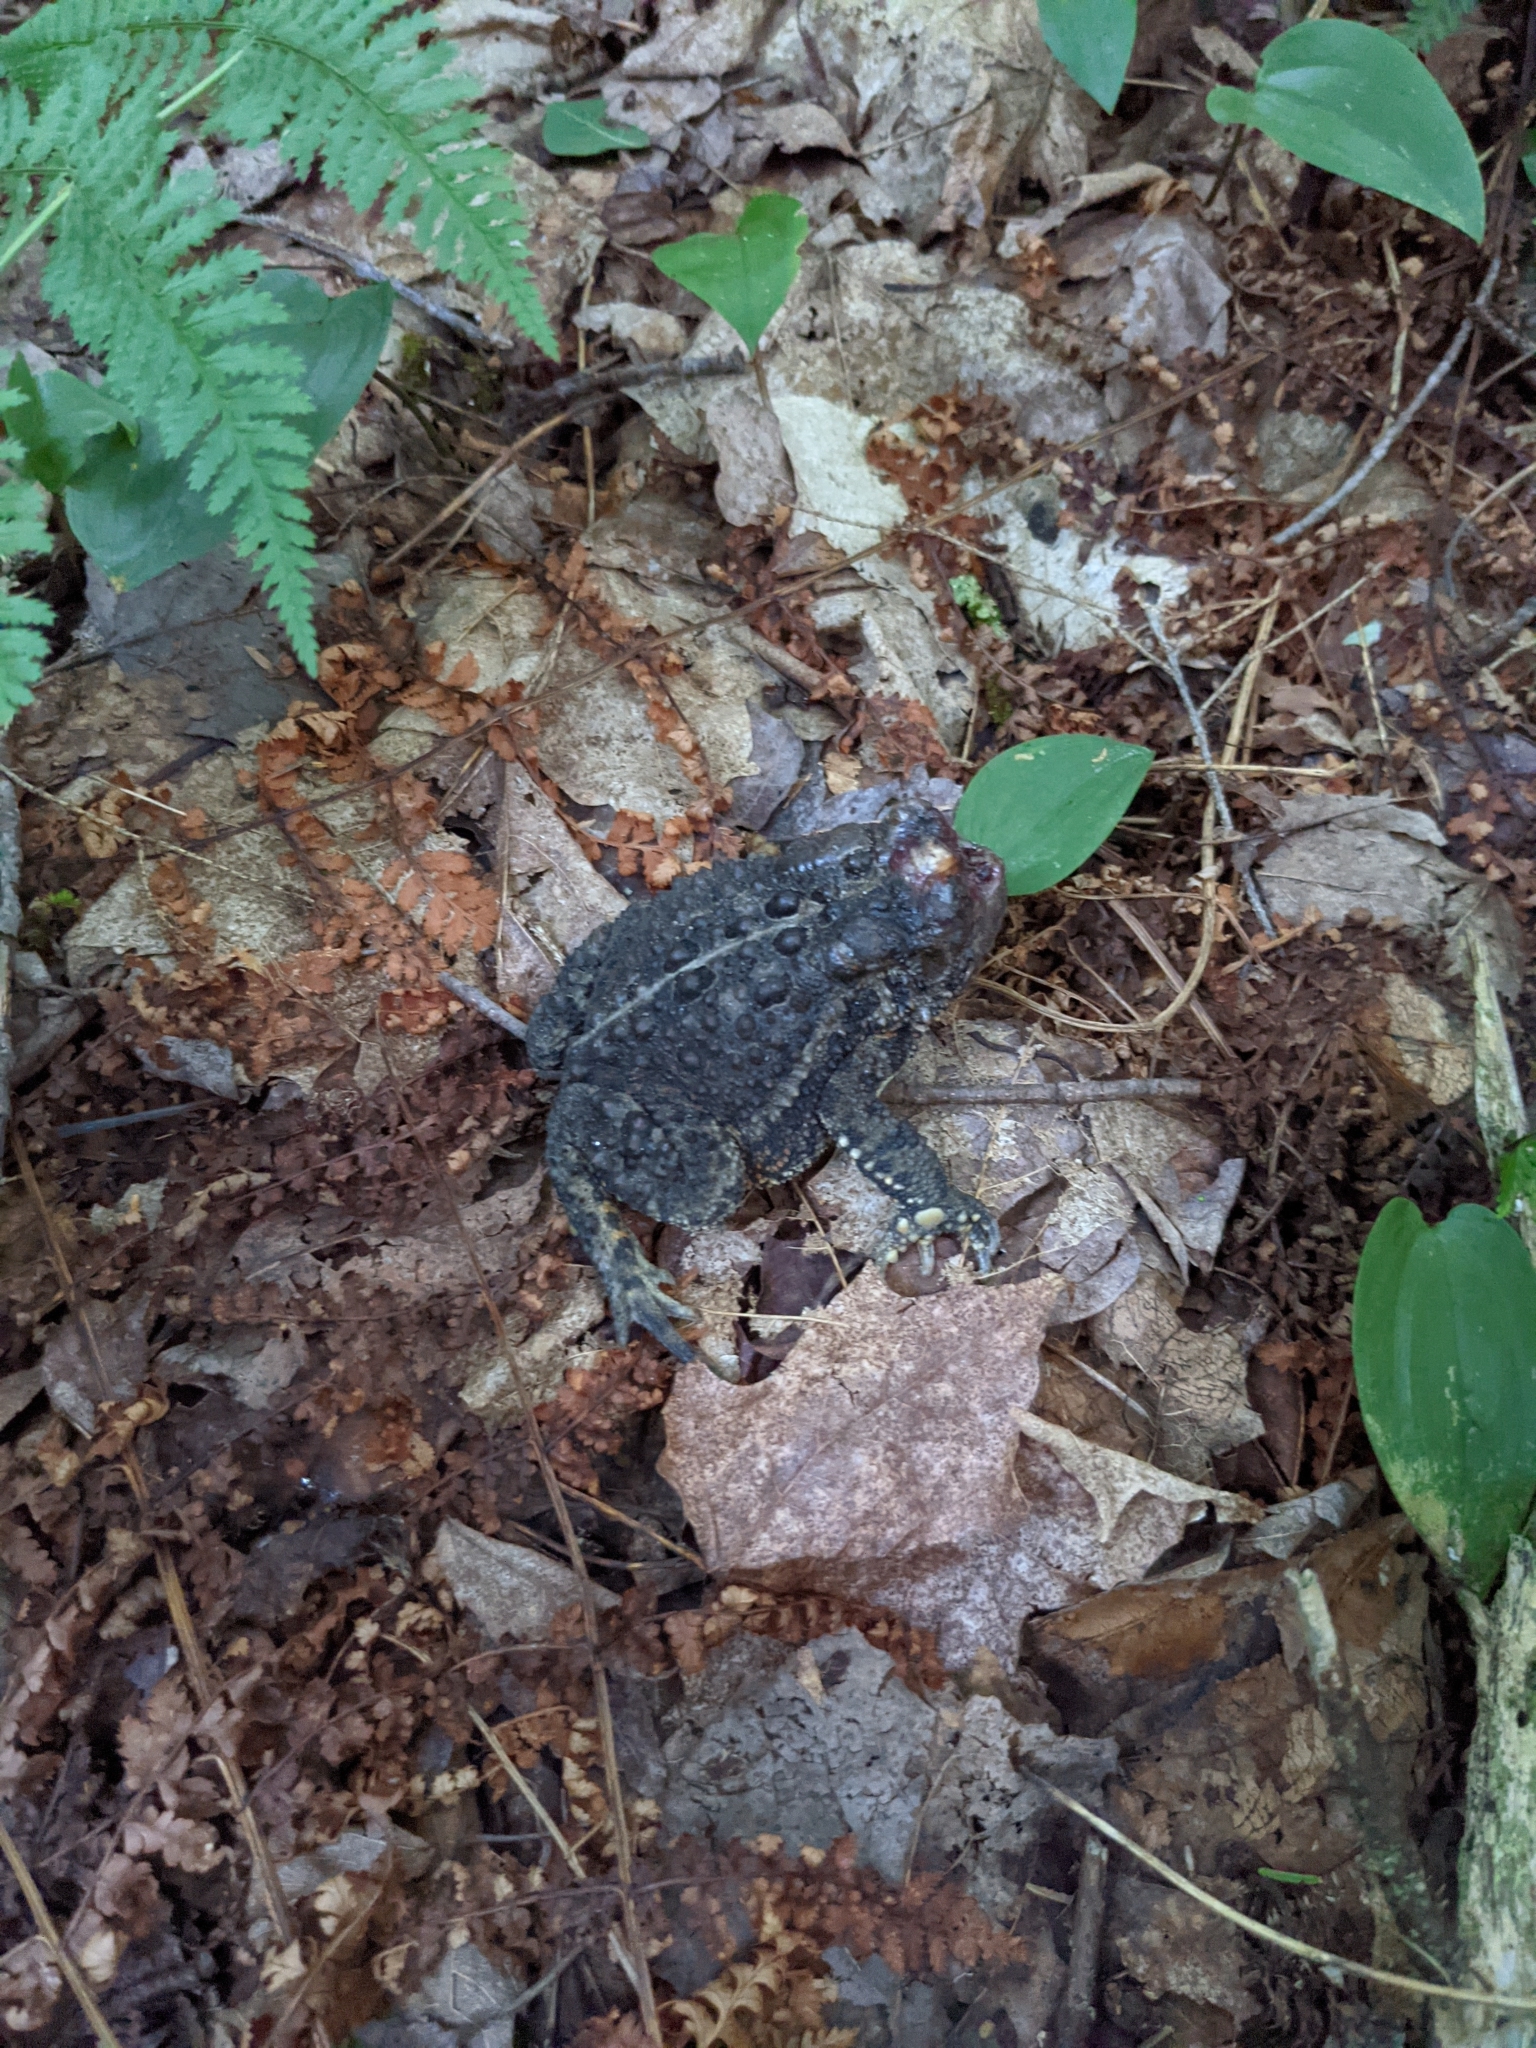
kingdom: Animalia
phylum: Chordata
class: Amphibia
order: Anura
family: Bufonidae
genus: Anaxyrus
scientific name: Anaxyrus americanus
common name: American toad
